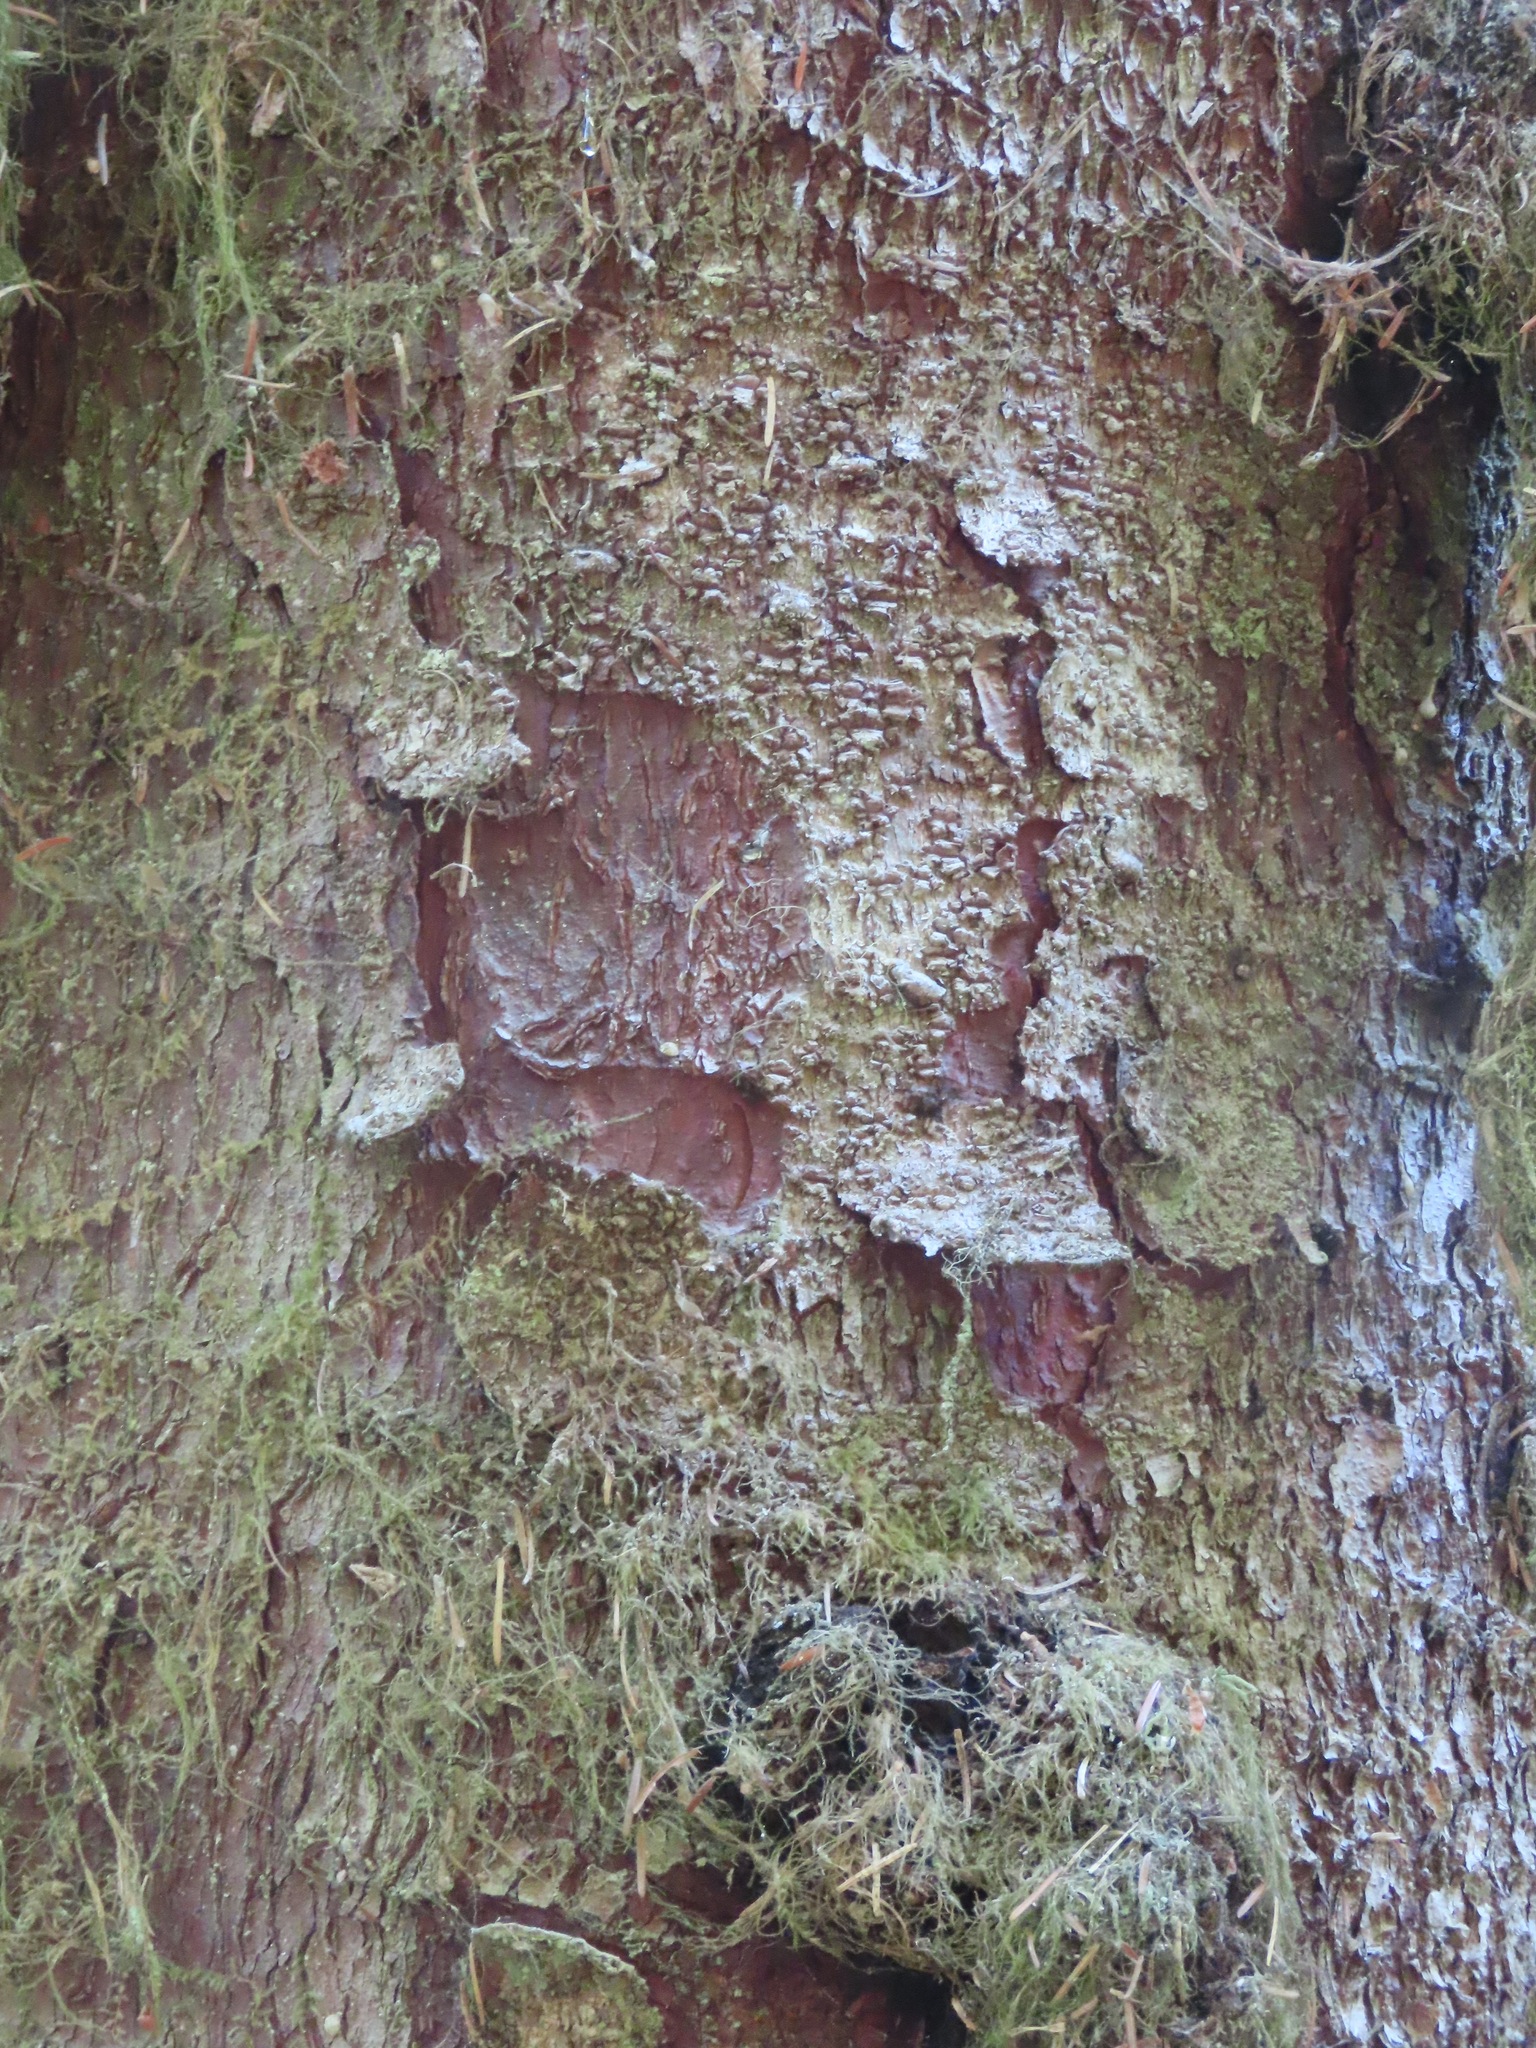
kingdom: Plantae
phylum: Tracheophyta
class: Pinopsida
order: Pinales
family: Pinaceae
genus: Picea
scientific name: Picea sitchensis
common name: Sitka spruce
